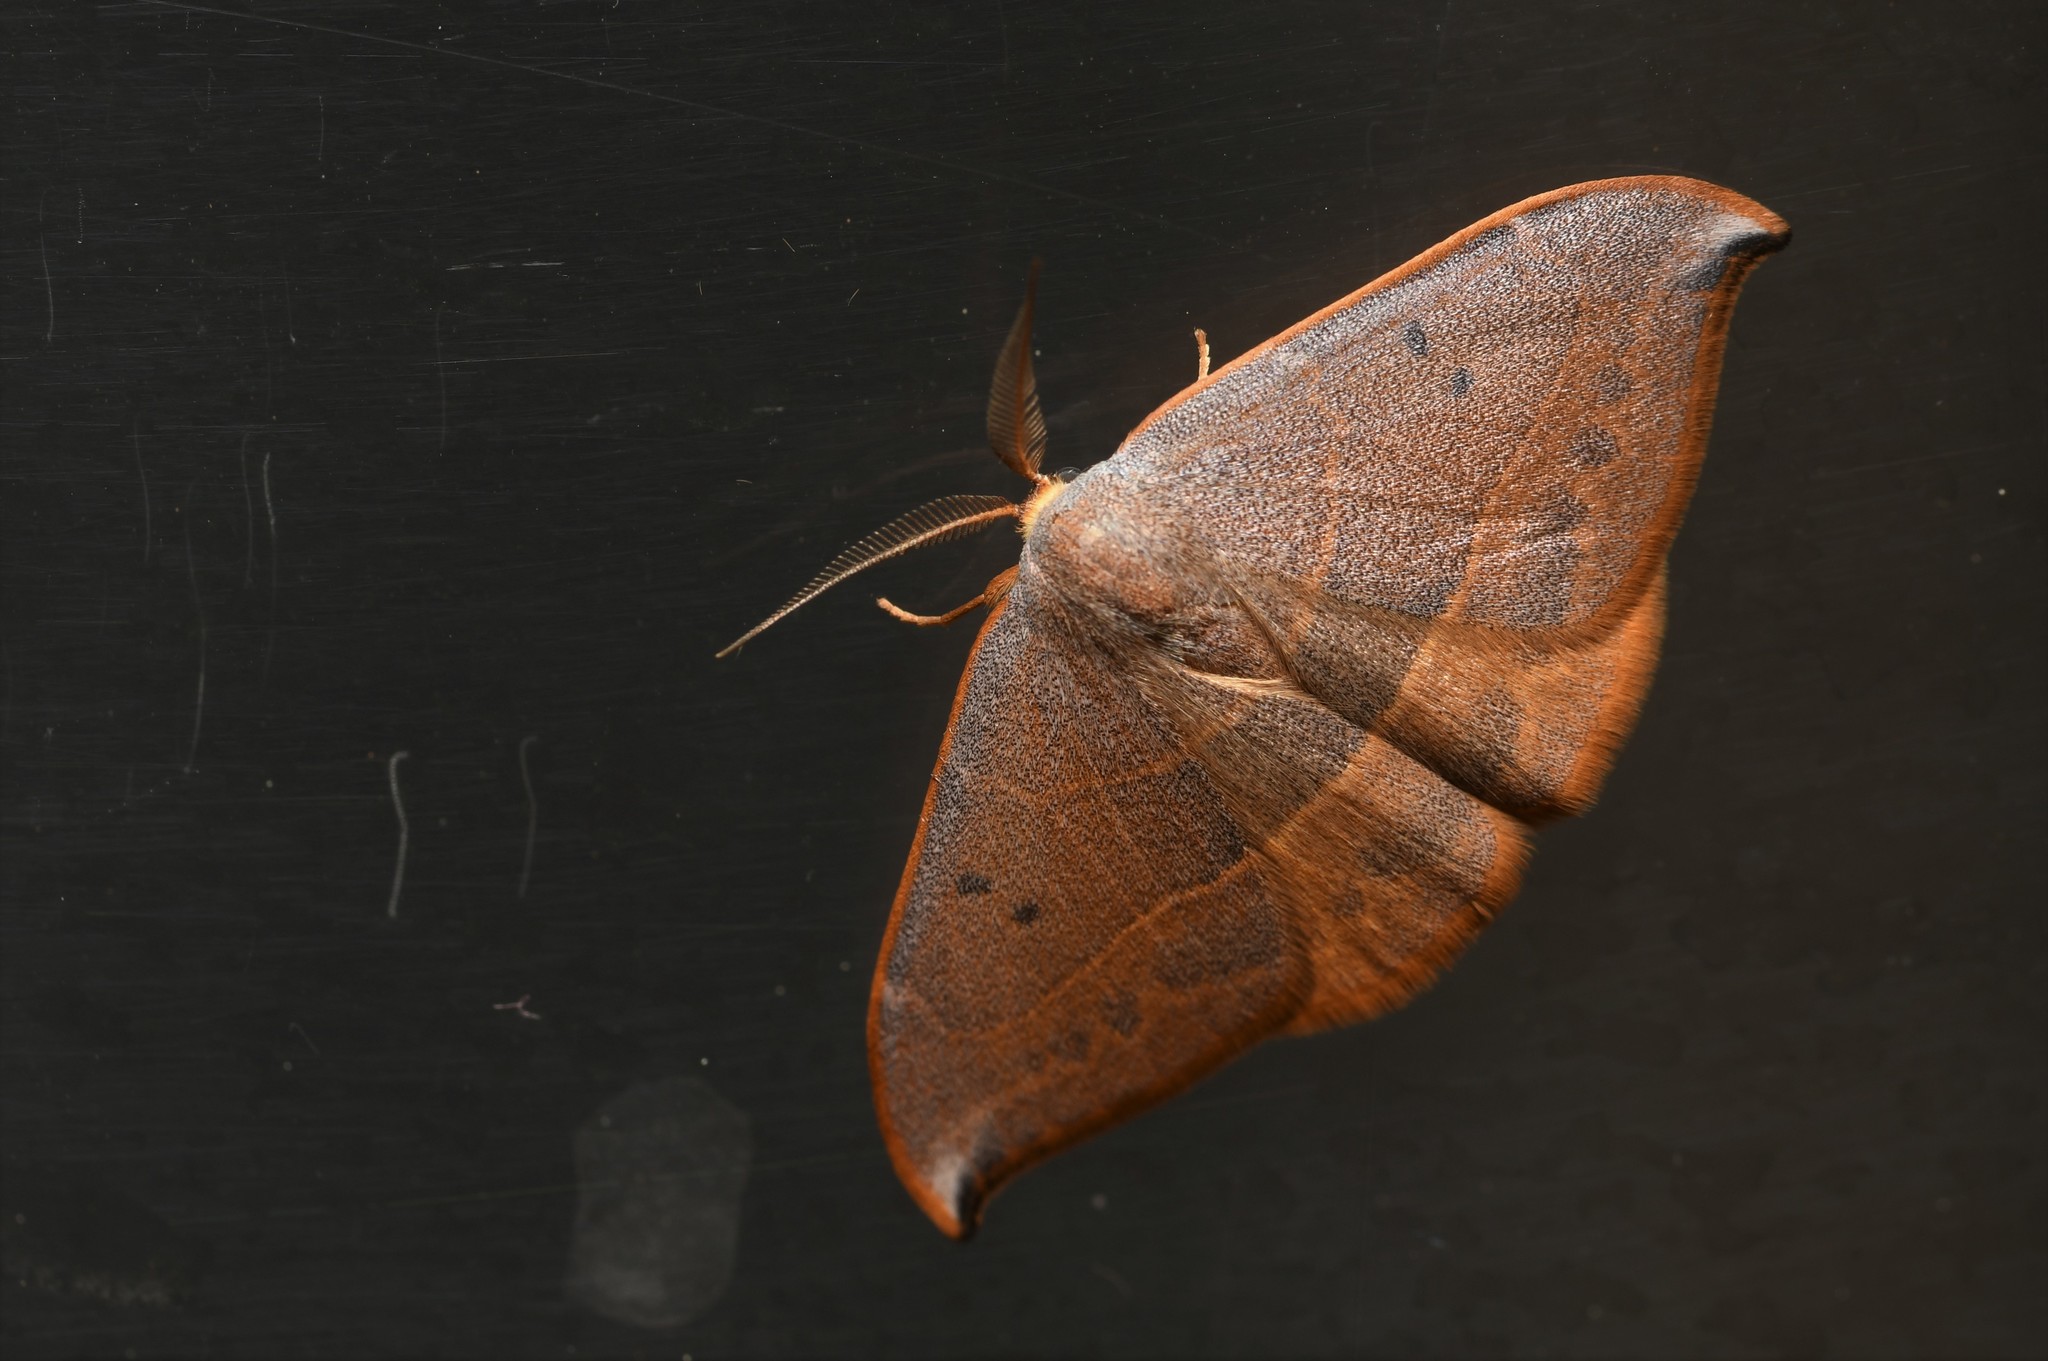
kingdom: Animalia
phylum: Arthropoda
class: Insecta
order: Lepidoptera
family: Drepanidae
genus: Watsonalla
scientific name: Watsonalla uncinula
